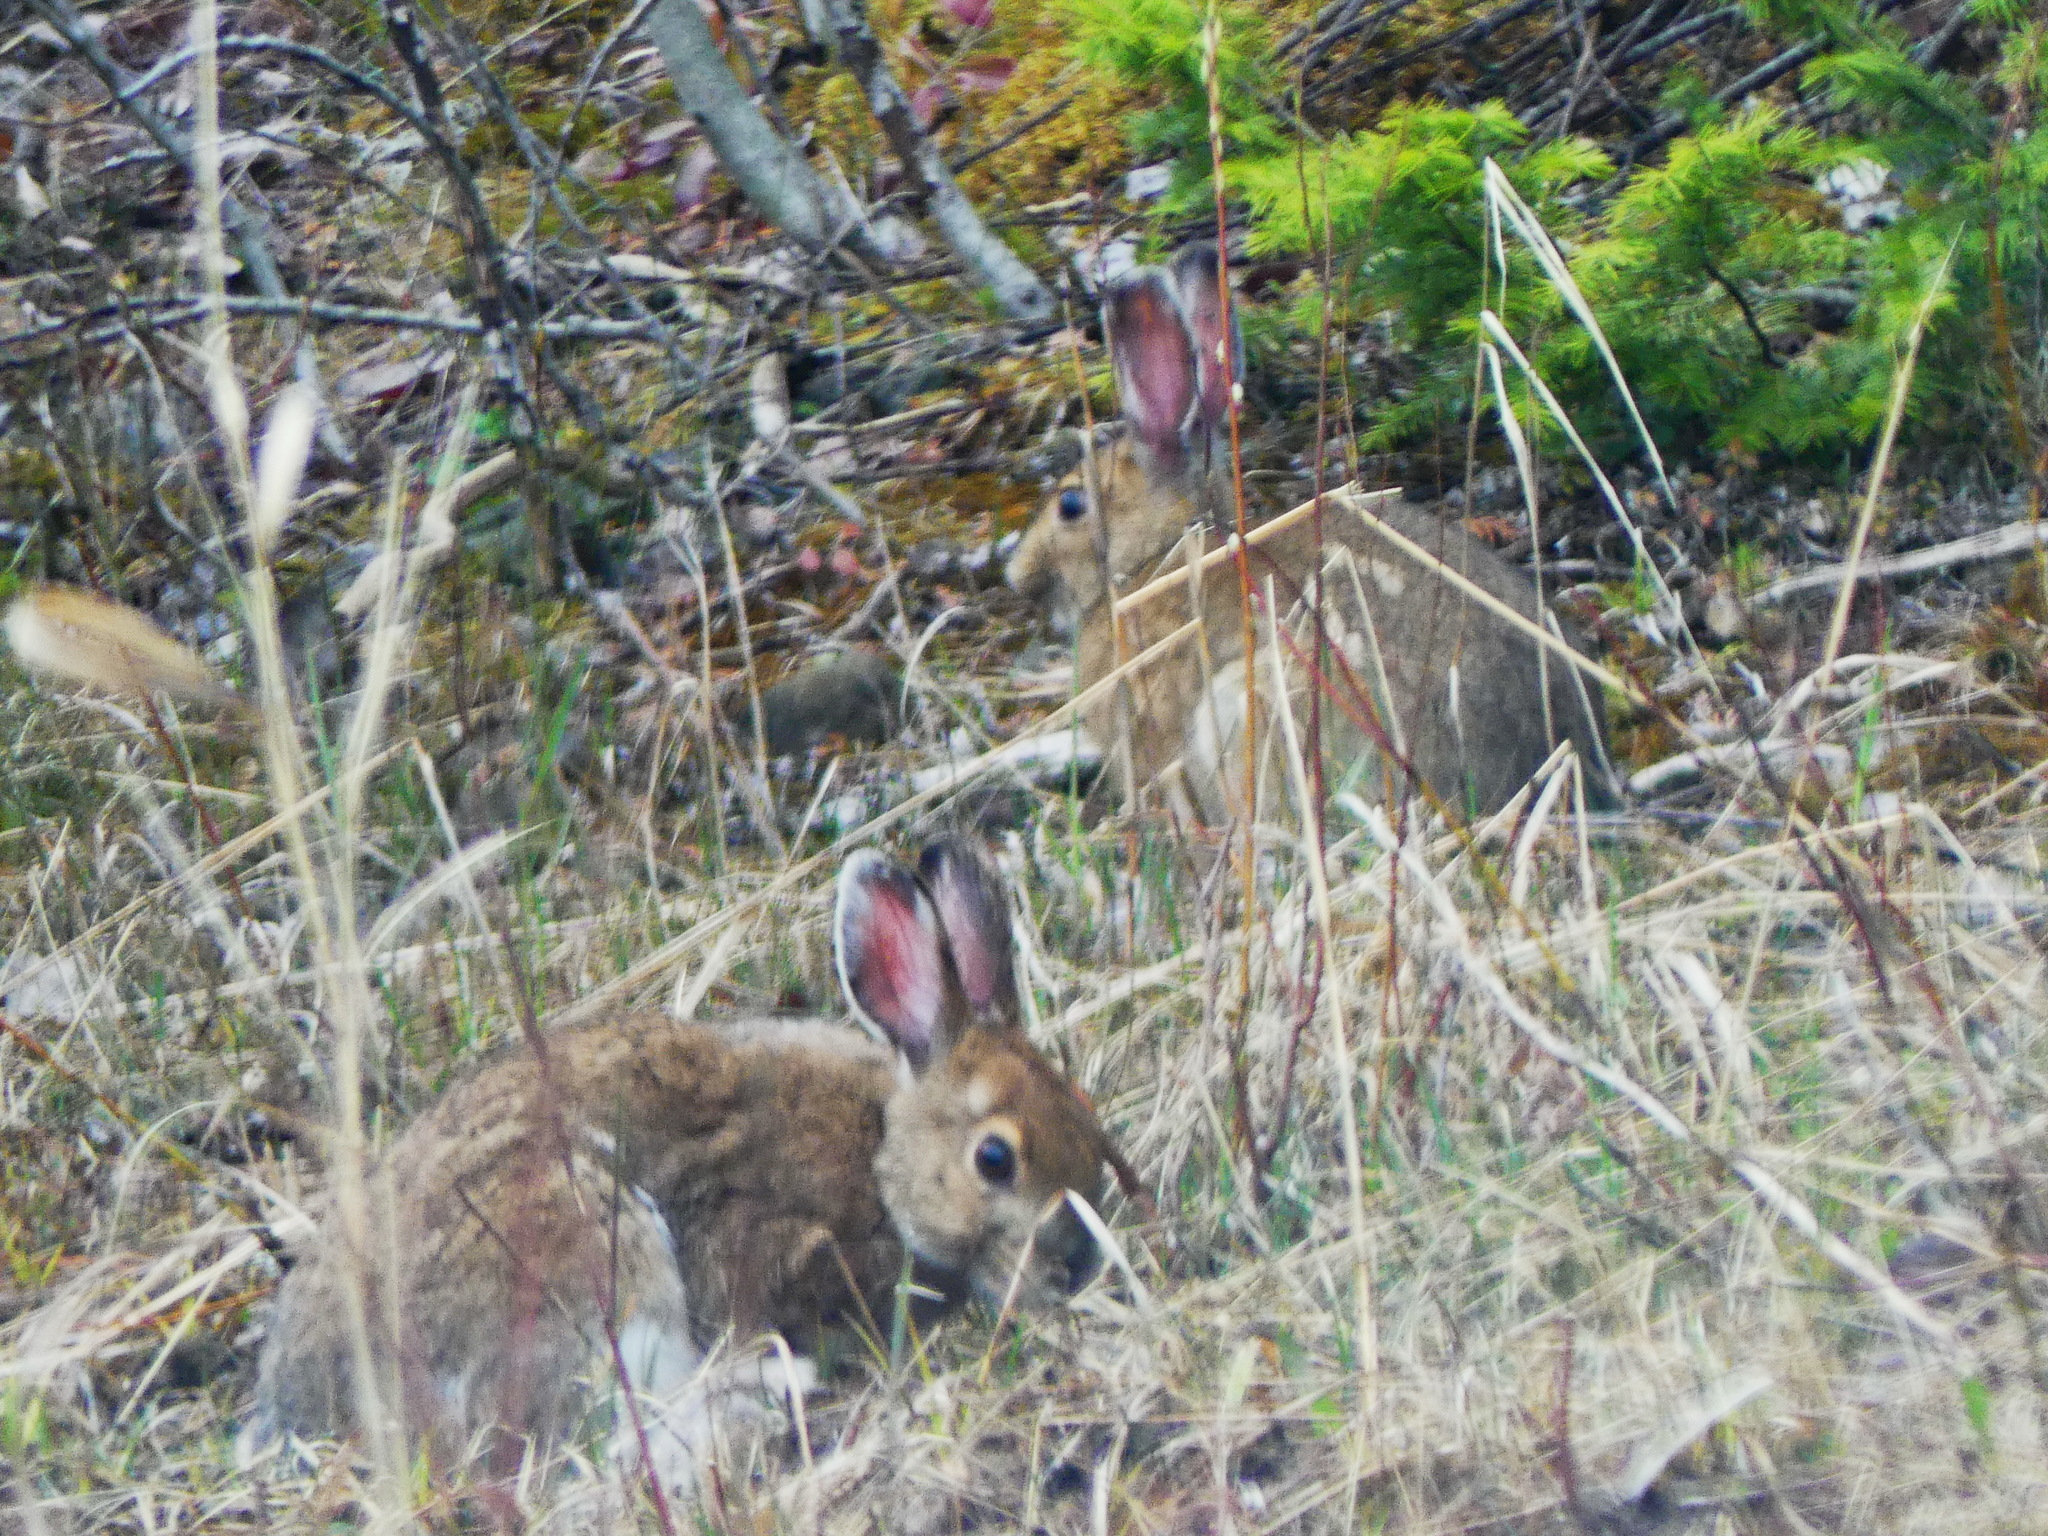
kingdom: Animalia
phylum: Chordata
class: Mammalia
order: Lagomorpha
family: Leporidae
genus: Lepus
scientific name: Lepus americanus
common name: Snowshoe hare
